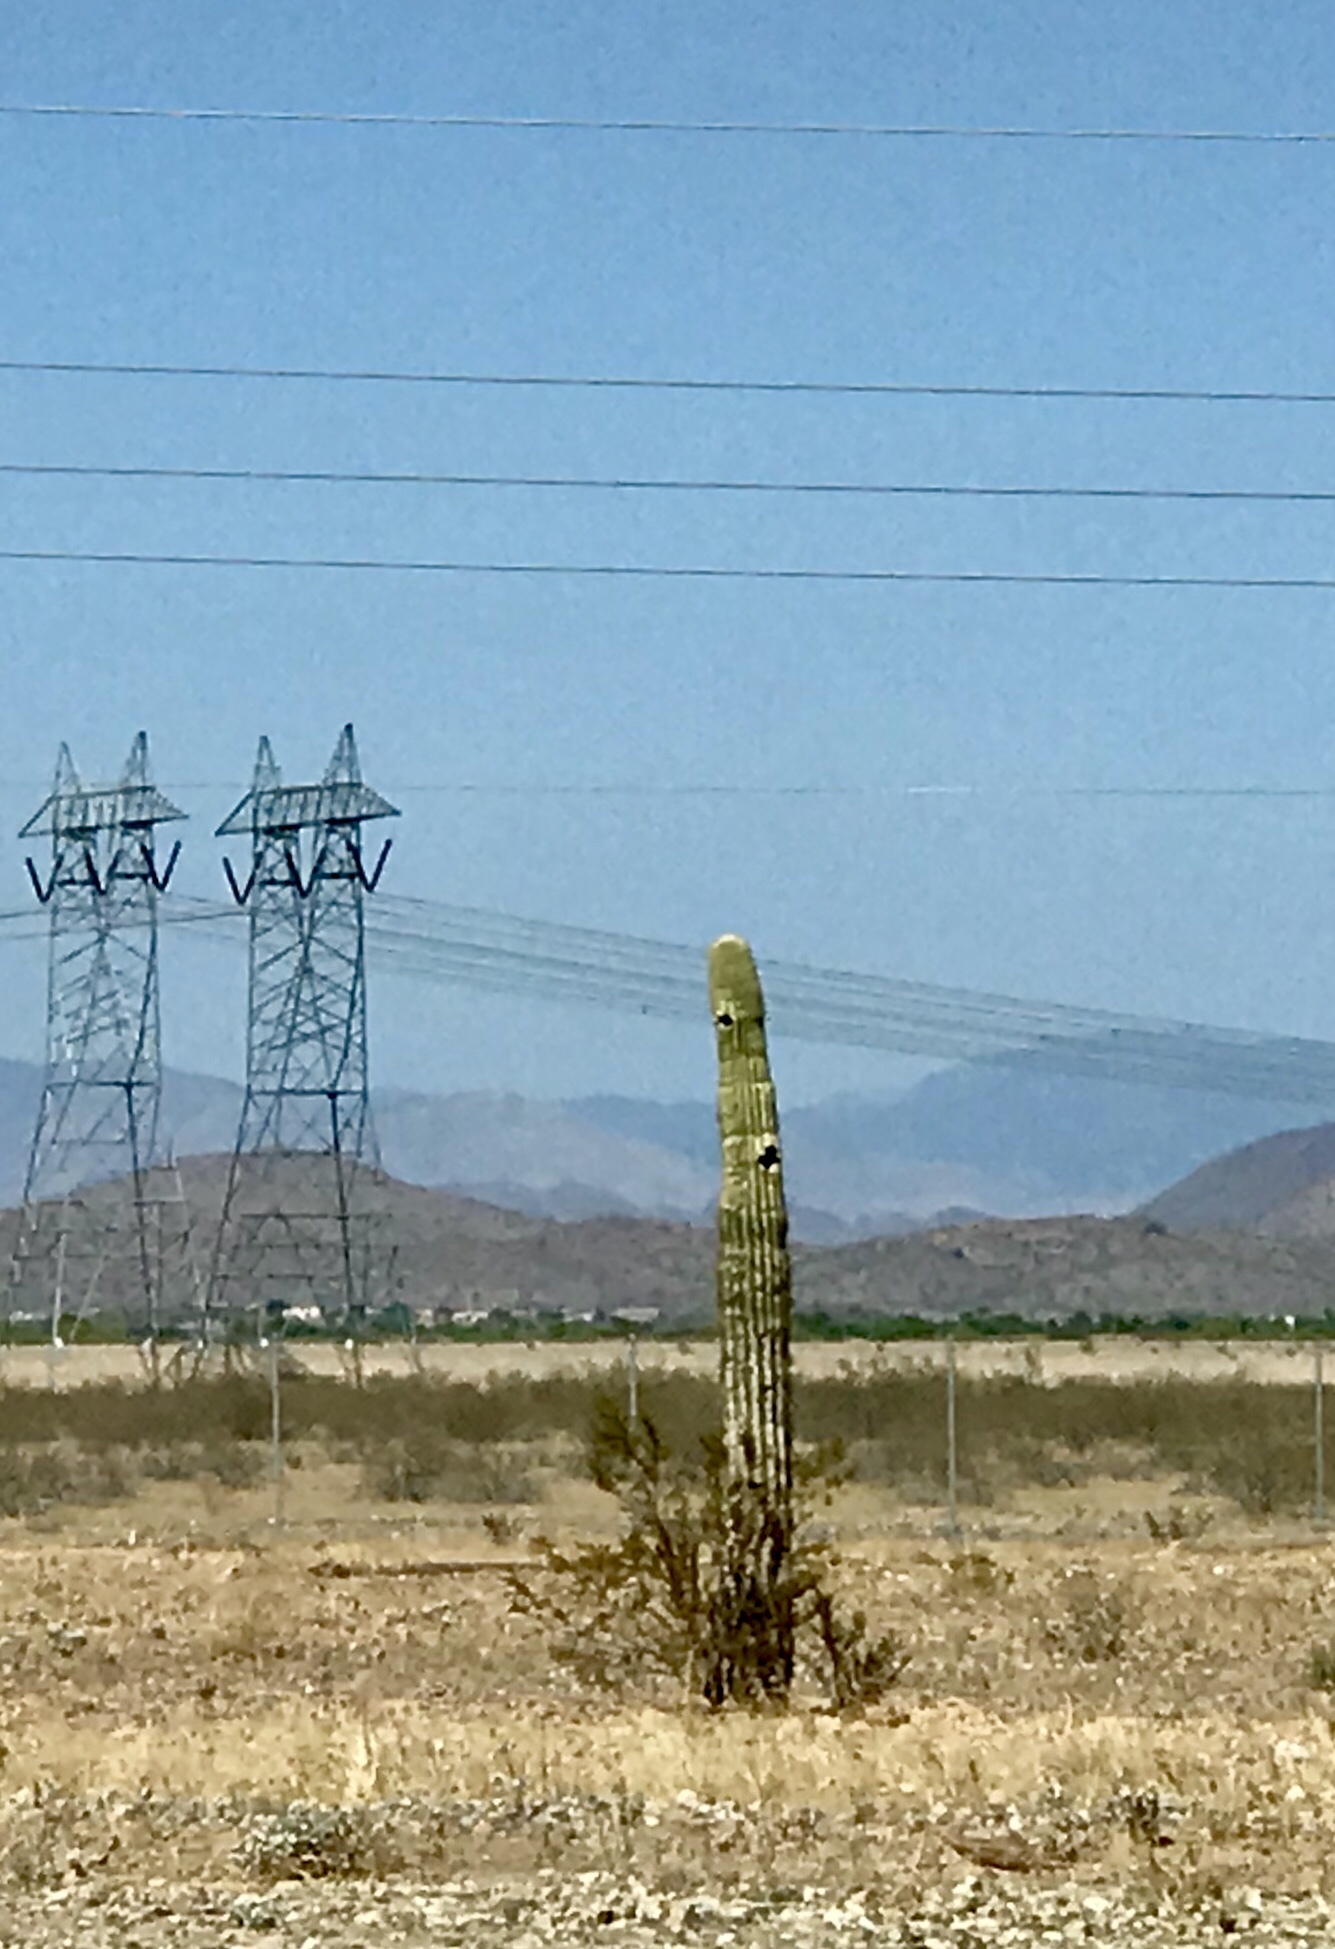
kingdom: Plantae
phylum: Tracheophyta
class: Magnoliopsida
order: Caryophyllales
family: Cactaceae
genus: Carnegiea
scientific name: Carnegiea gigantea
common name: Saguaro
